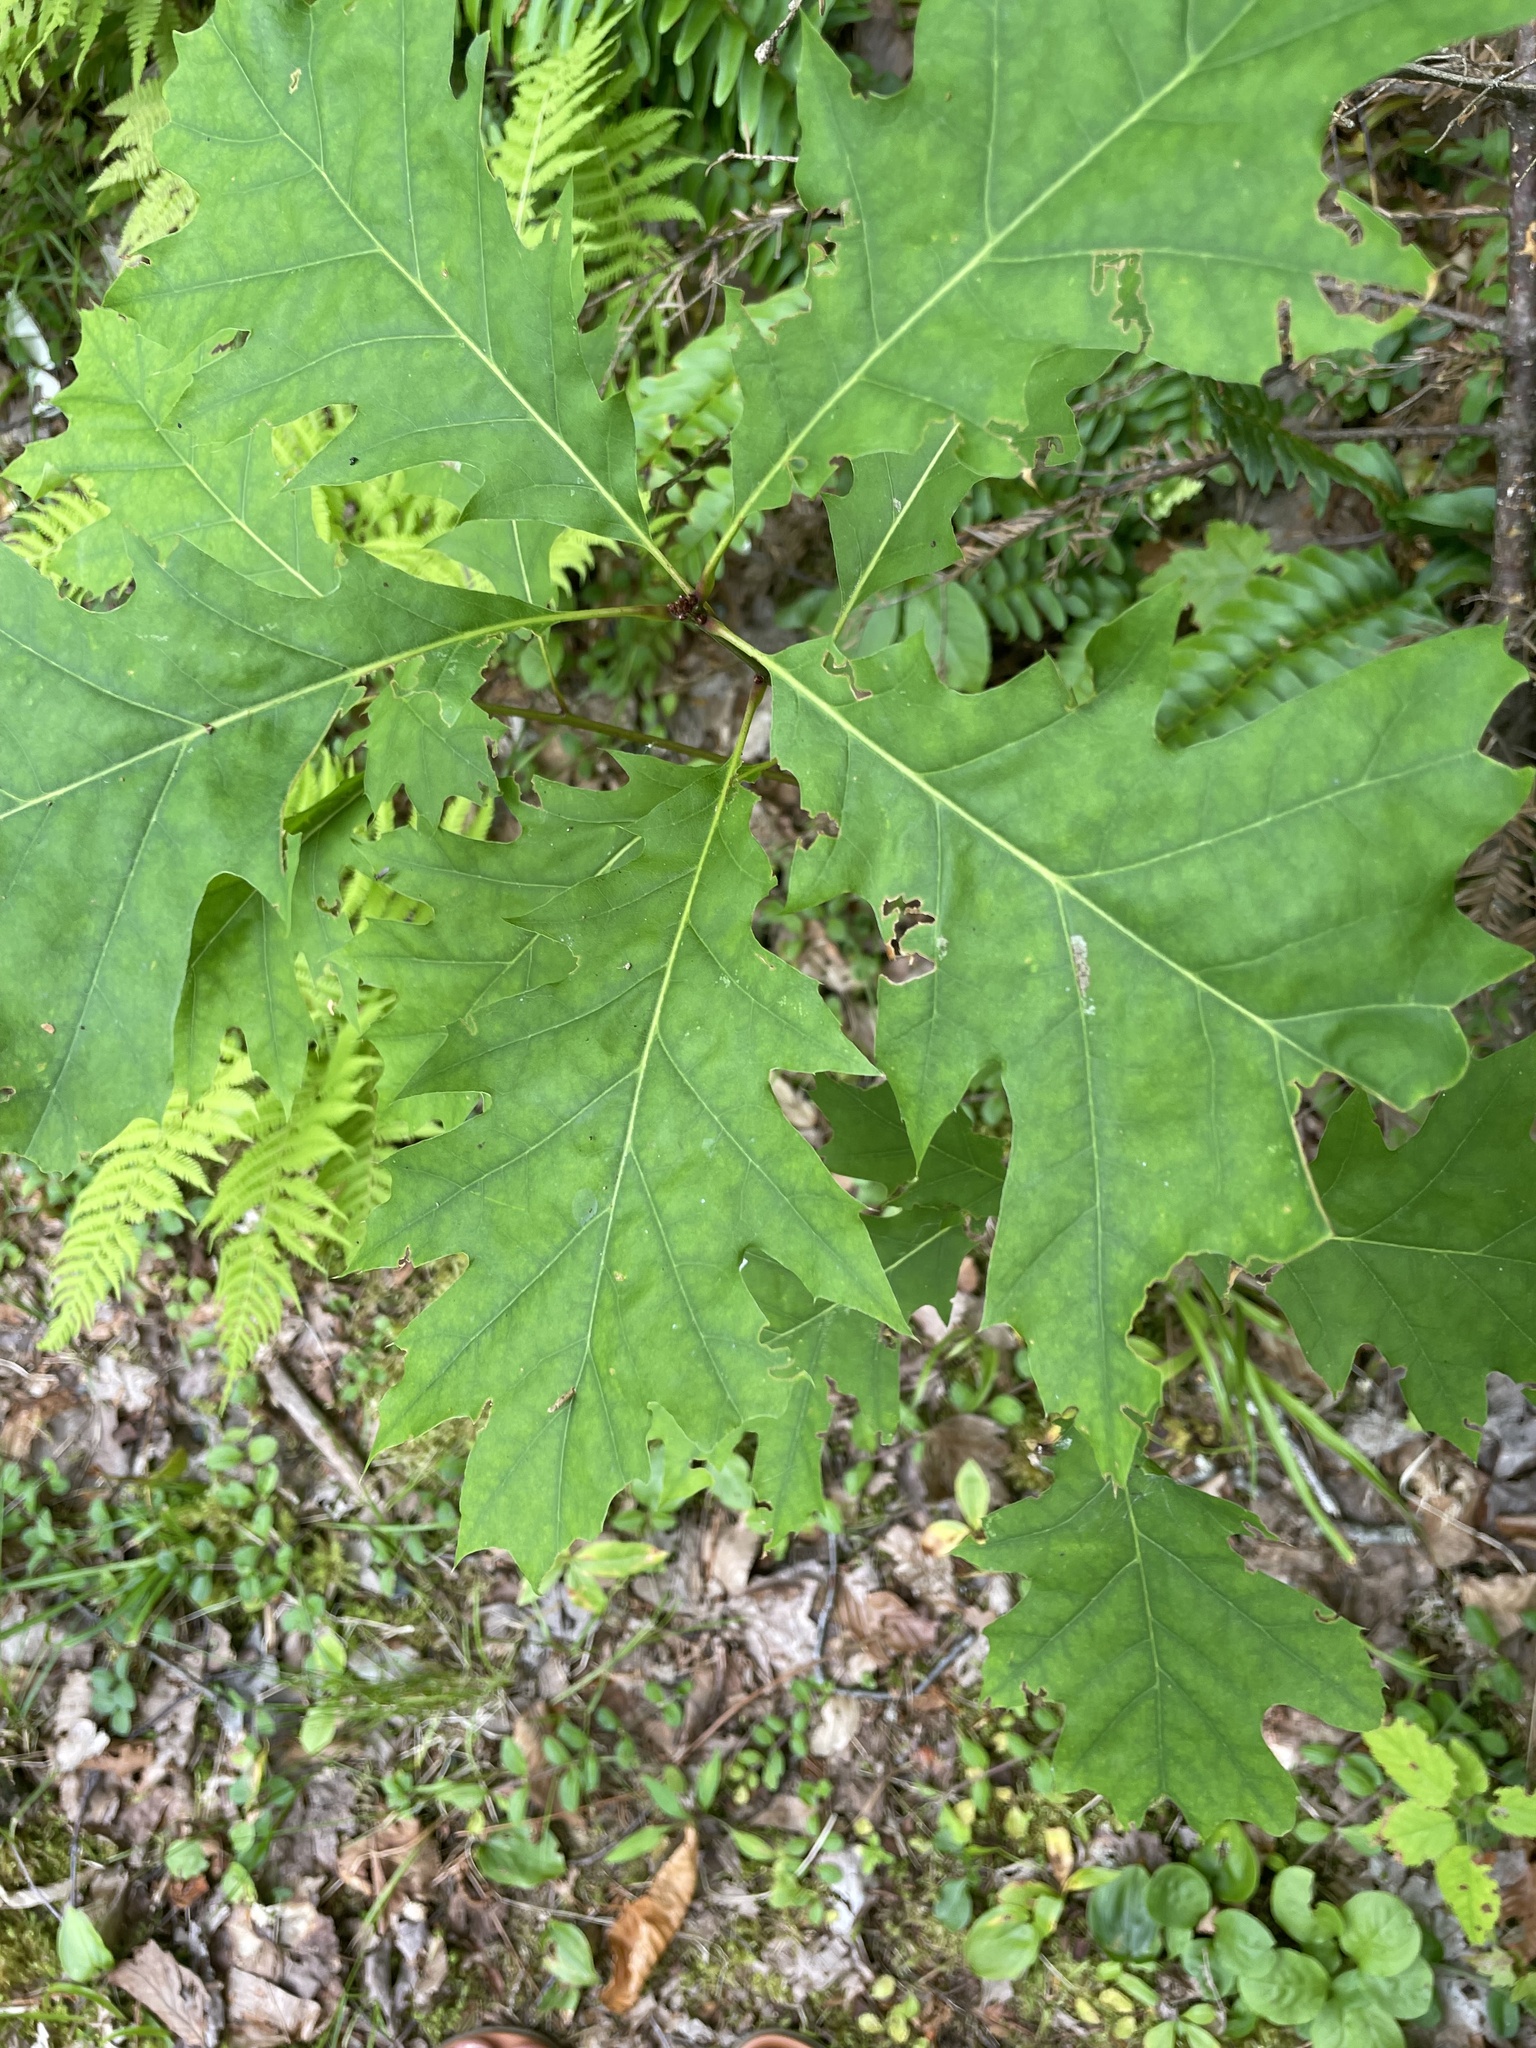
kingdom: Plantae
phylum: Tracheophyta
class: Magnoliopsida
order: Fagales
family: Fagaceae
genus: Quercus
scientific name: Quercus rubra
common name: Red oak
